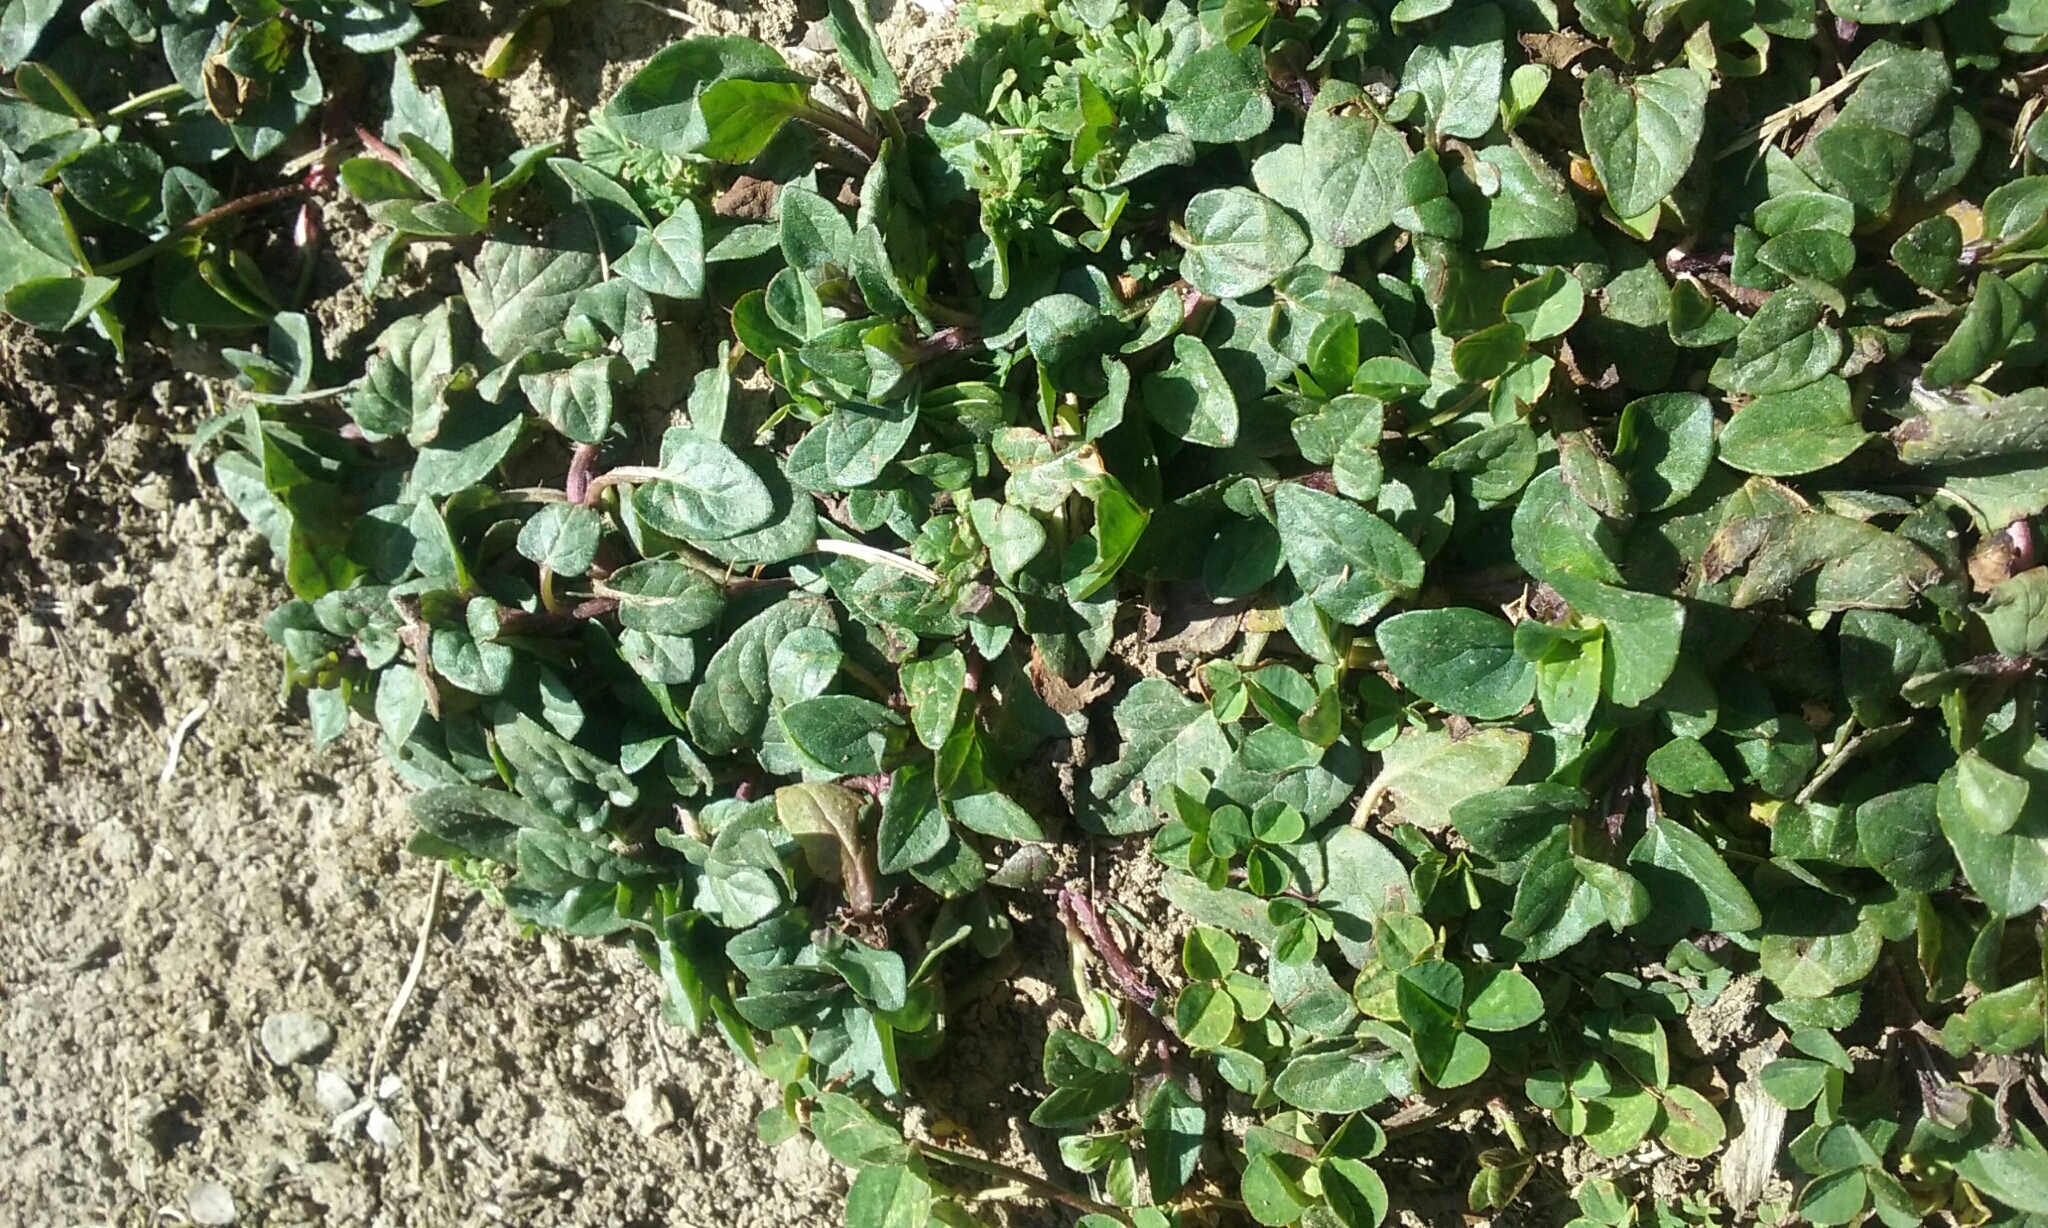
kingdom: Plantae
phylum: Tracheophyta
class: Magnoliopsida
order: Lamiales
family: Lamiaceae
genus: Prunella
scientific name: Prunella vulgaris
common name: Heal-all
